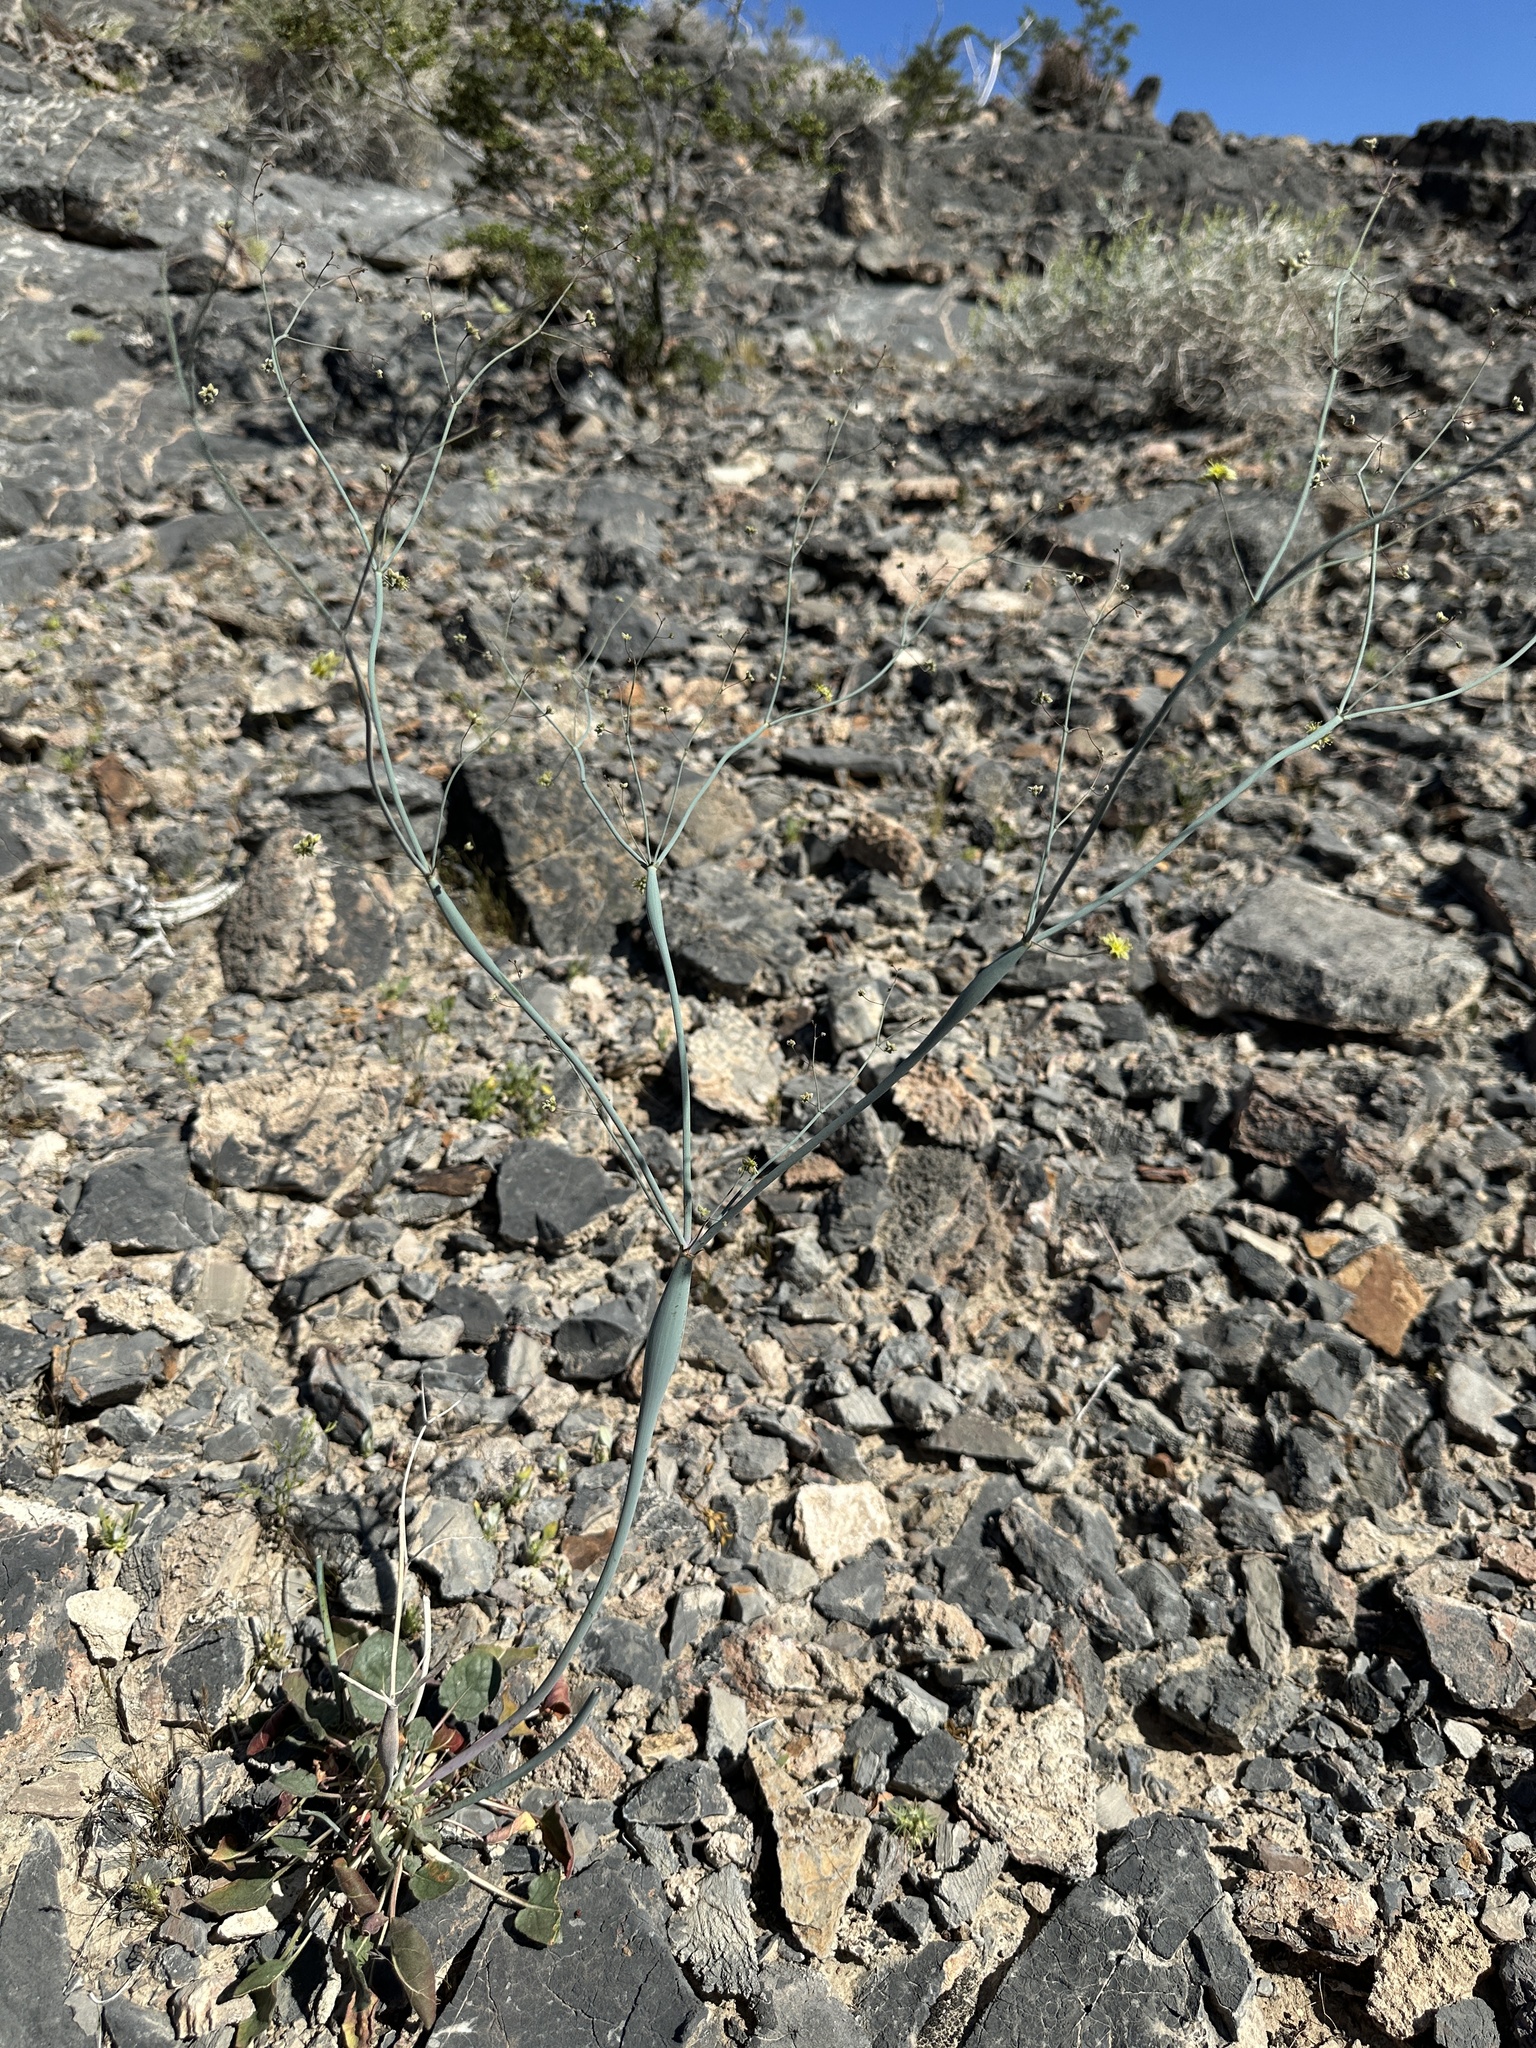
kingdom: Plantae
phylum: Tracheophyta
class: Magnoliopsida
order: Caryophyllales
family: Polygonaceae
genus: Eriogonum
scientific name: Eriogonum inflatum
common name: Desert trumpet
